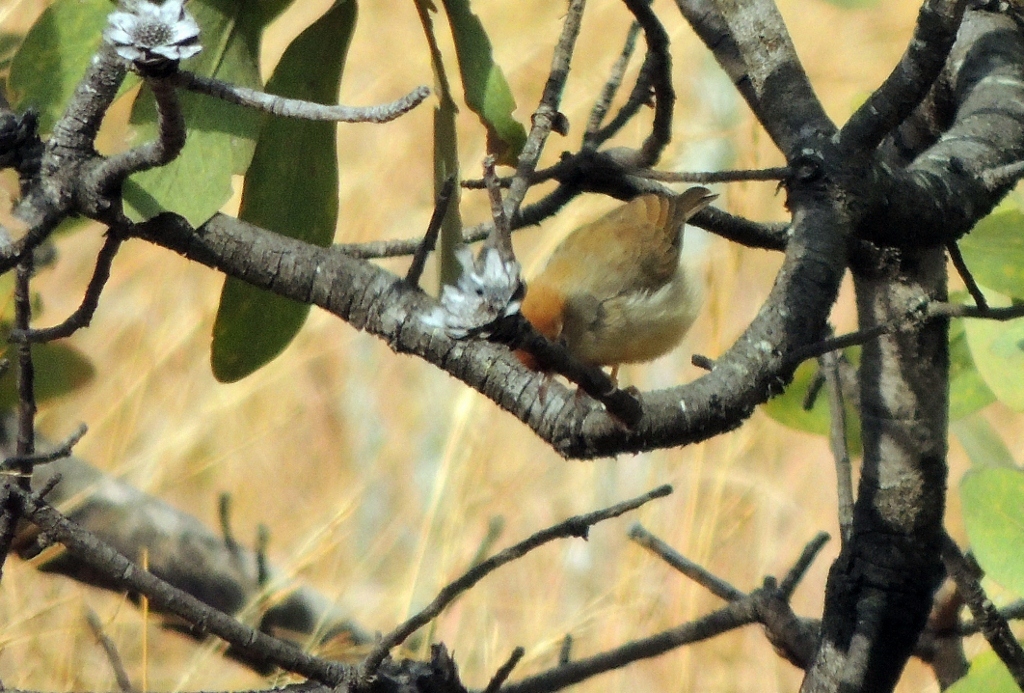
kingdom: Animalia
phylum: Chordata
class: Aves
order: Passeriformes
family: Cisticolidae
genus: Cisticola
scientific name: Cisticola fulvicapilla
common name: Neddicky
